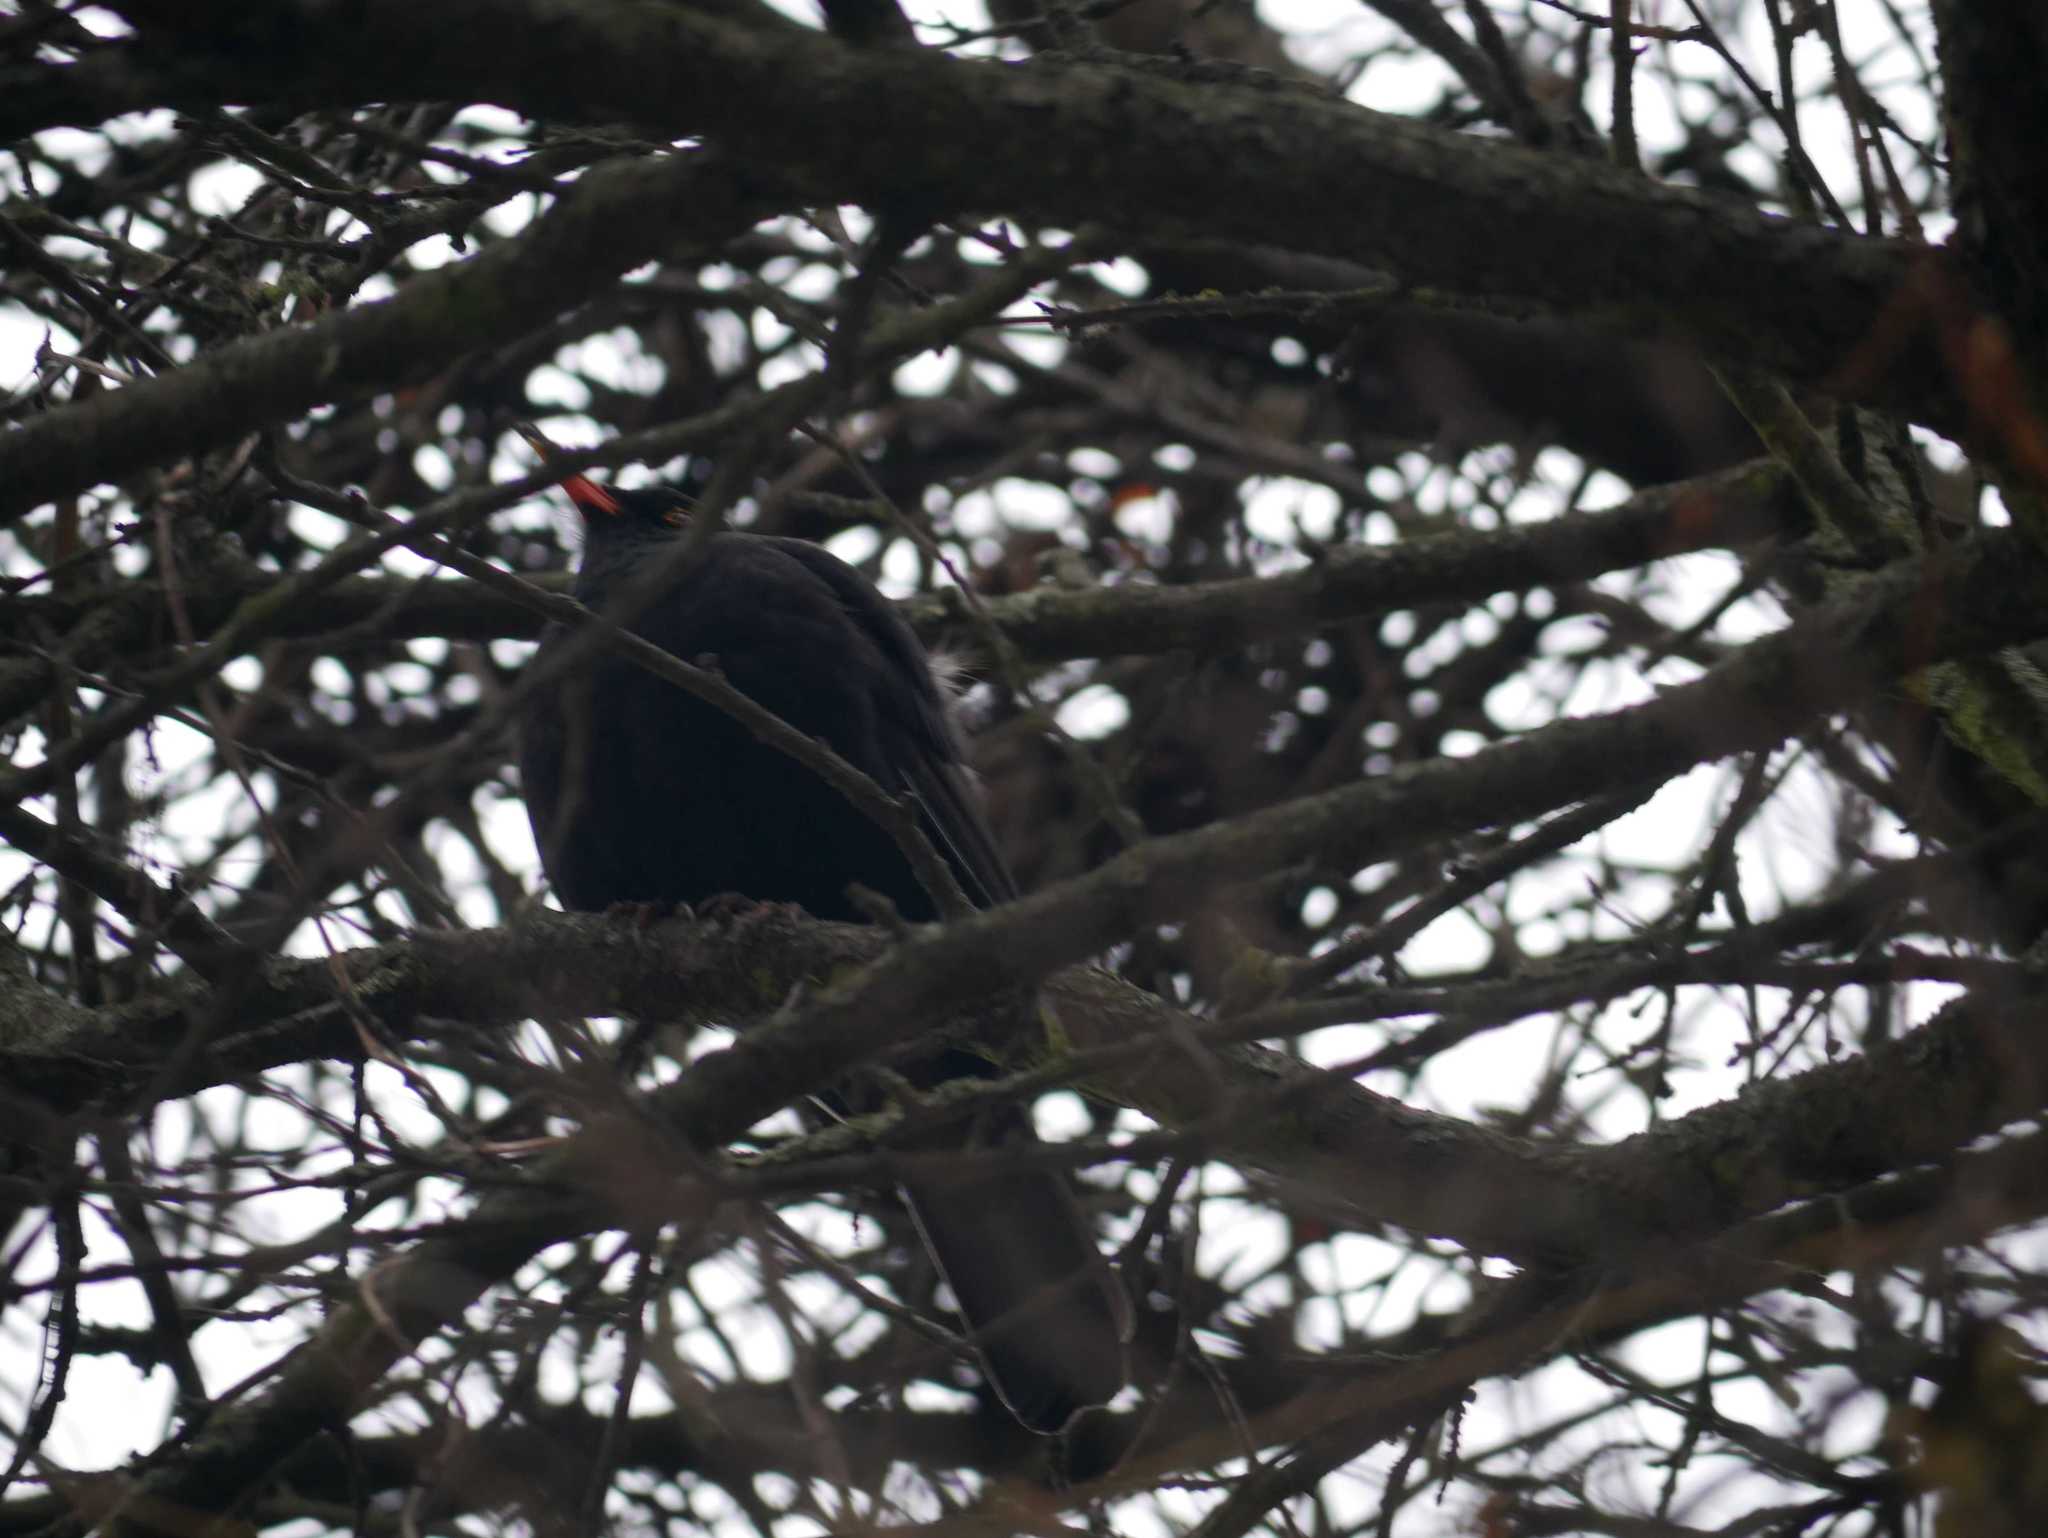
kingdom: Animalia
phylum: Chordata
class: Aves
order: Passeriformes
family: Turdidae
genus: Turdus
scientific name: Turdus merula
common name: Common blackbird
